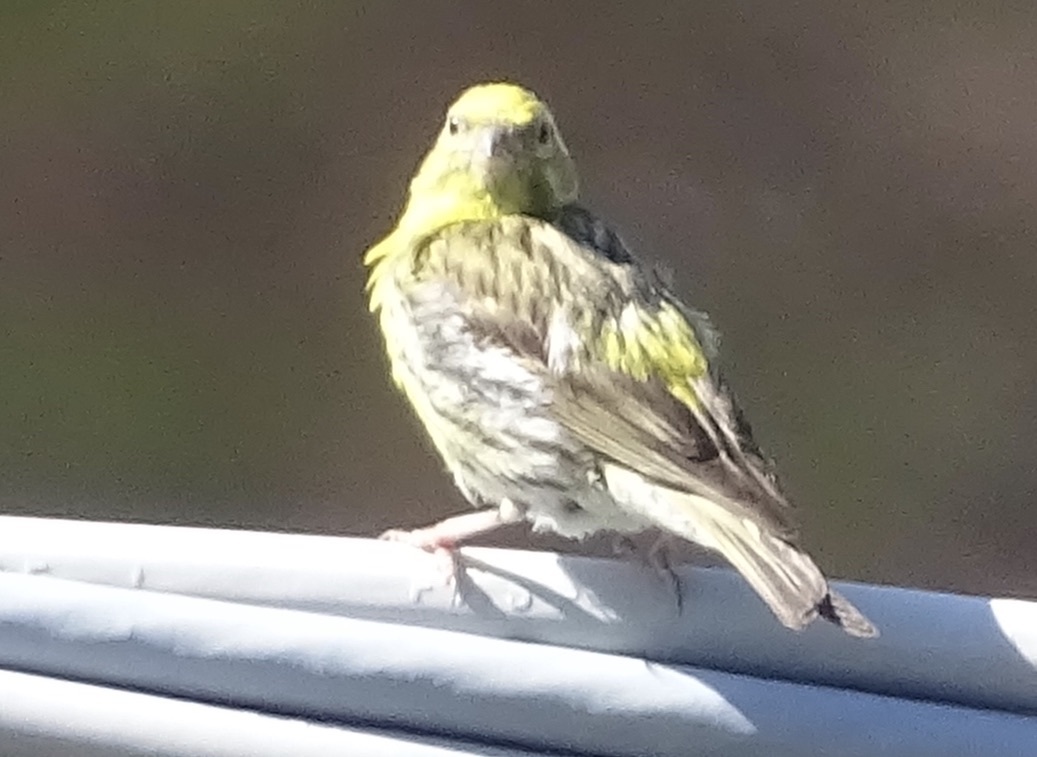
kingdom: Animalia
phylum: Chordata
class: Aves
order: Passeriformes
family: Fringillidae
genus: Serinus
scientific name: Serinus serinus
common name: European serin
